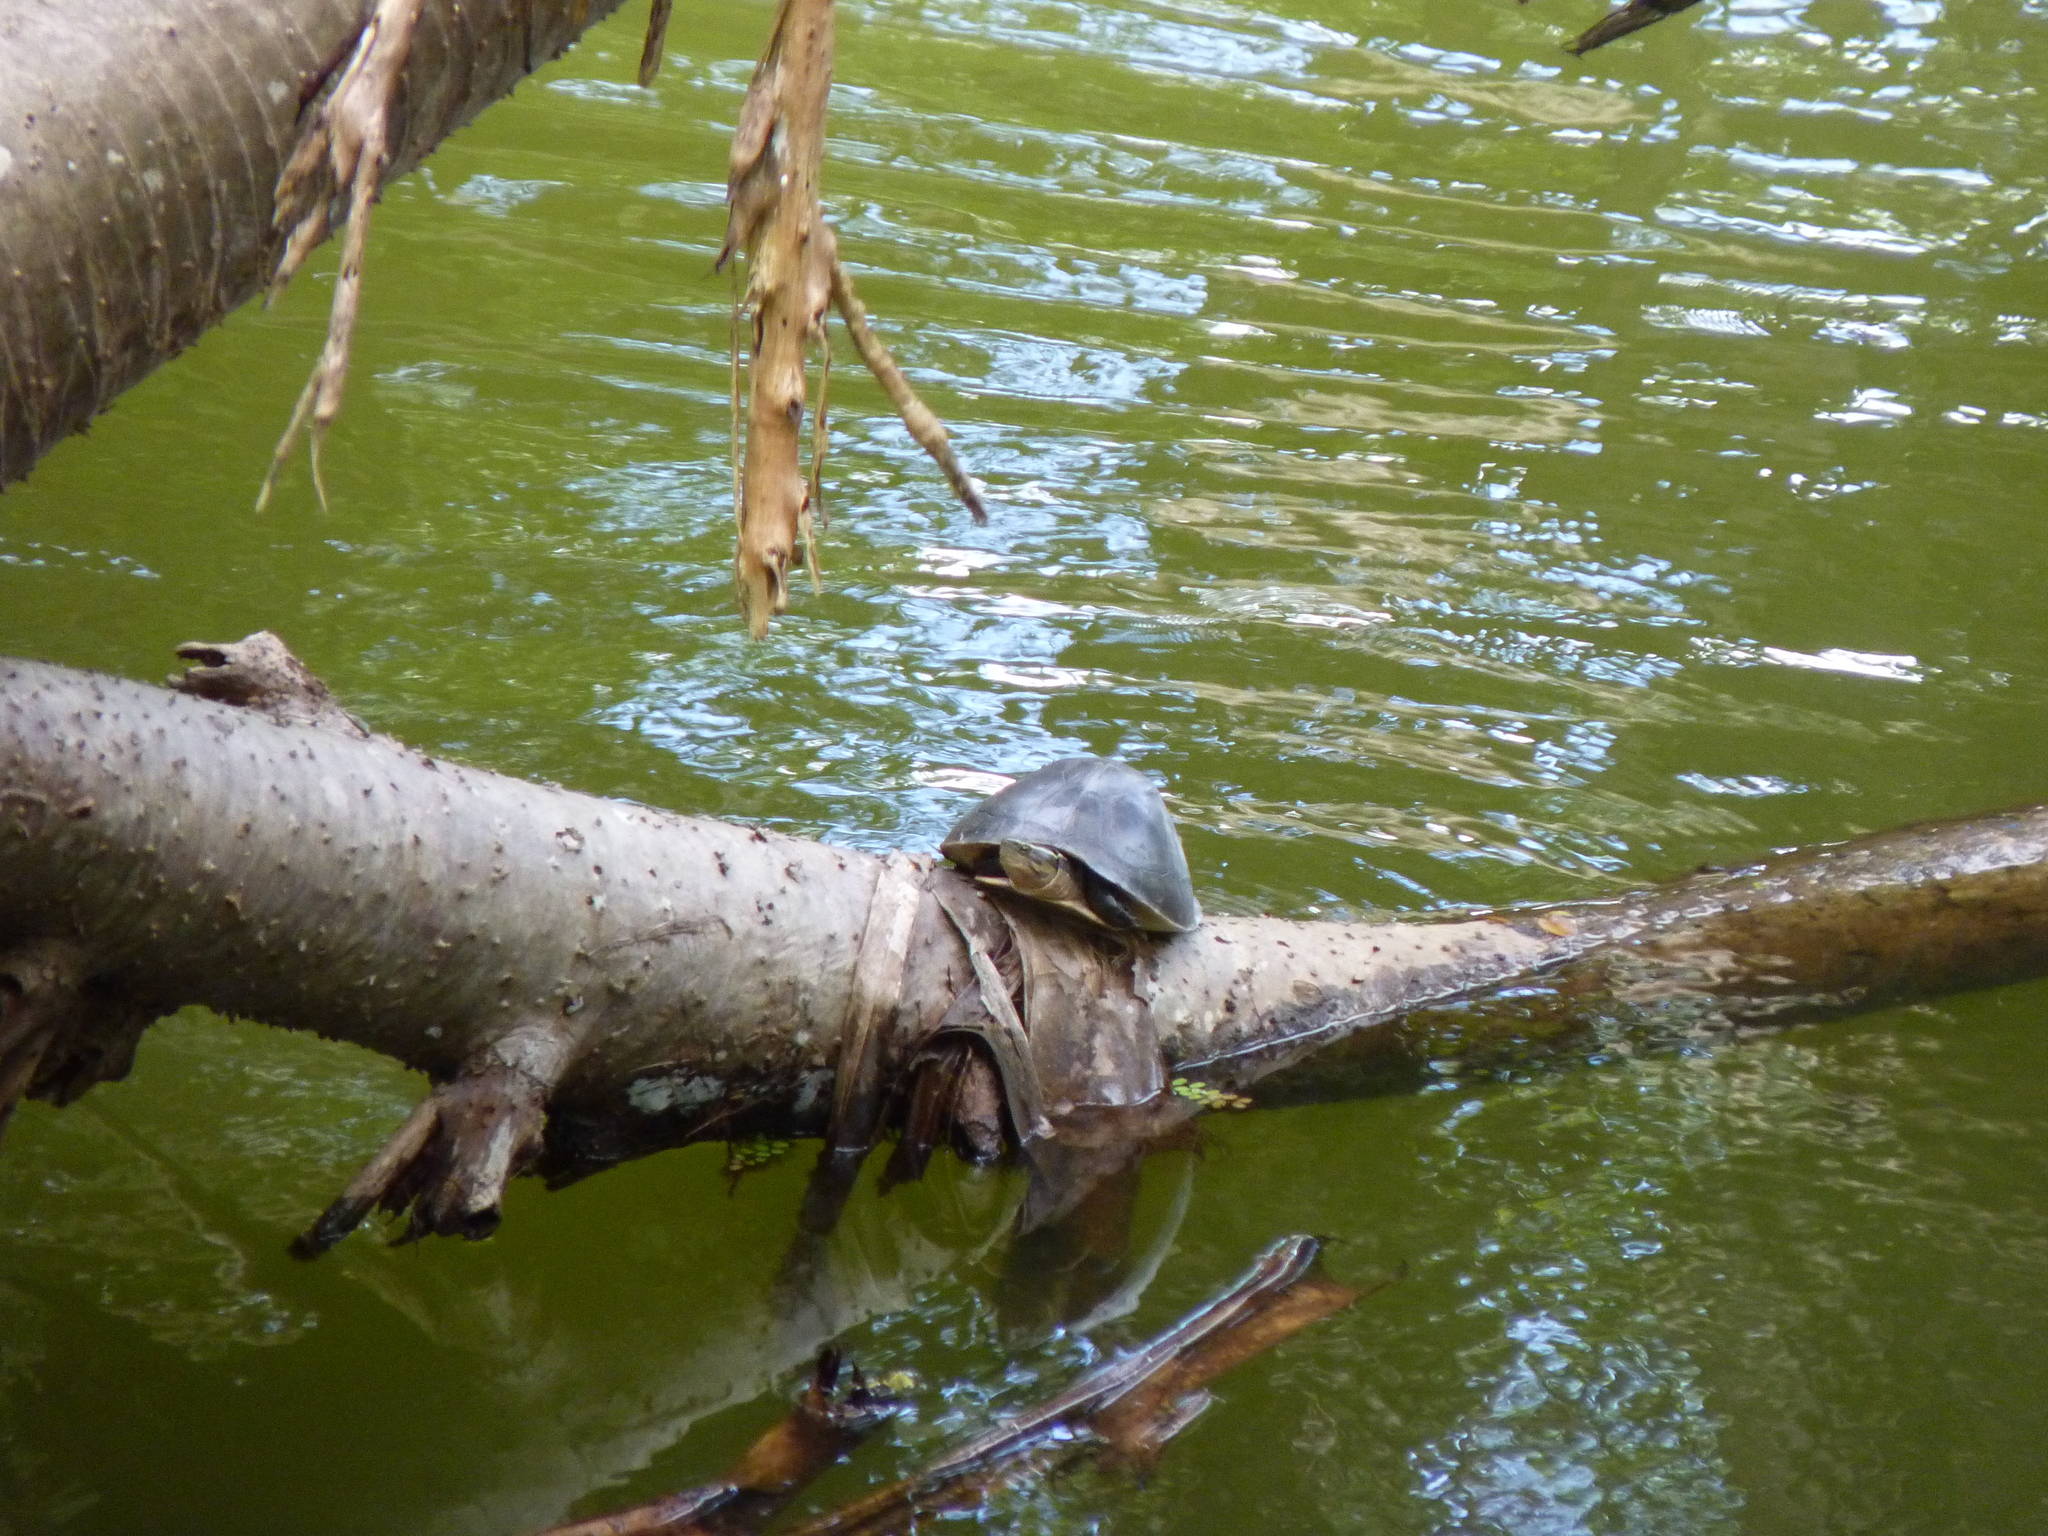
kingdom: Animalia
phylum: Chordata
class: Testudines
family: Geoemydidae
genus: Cuora
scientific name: Cuora
